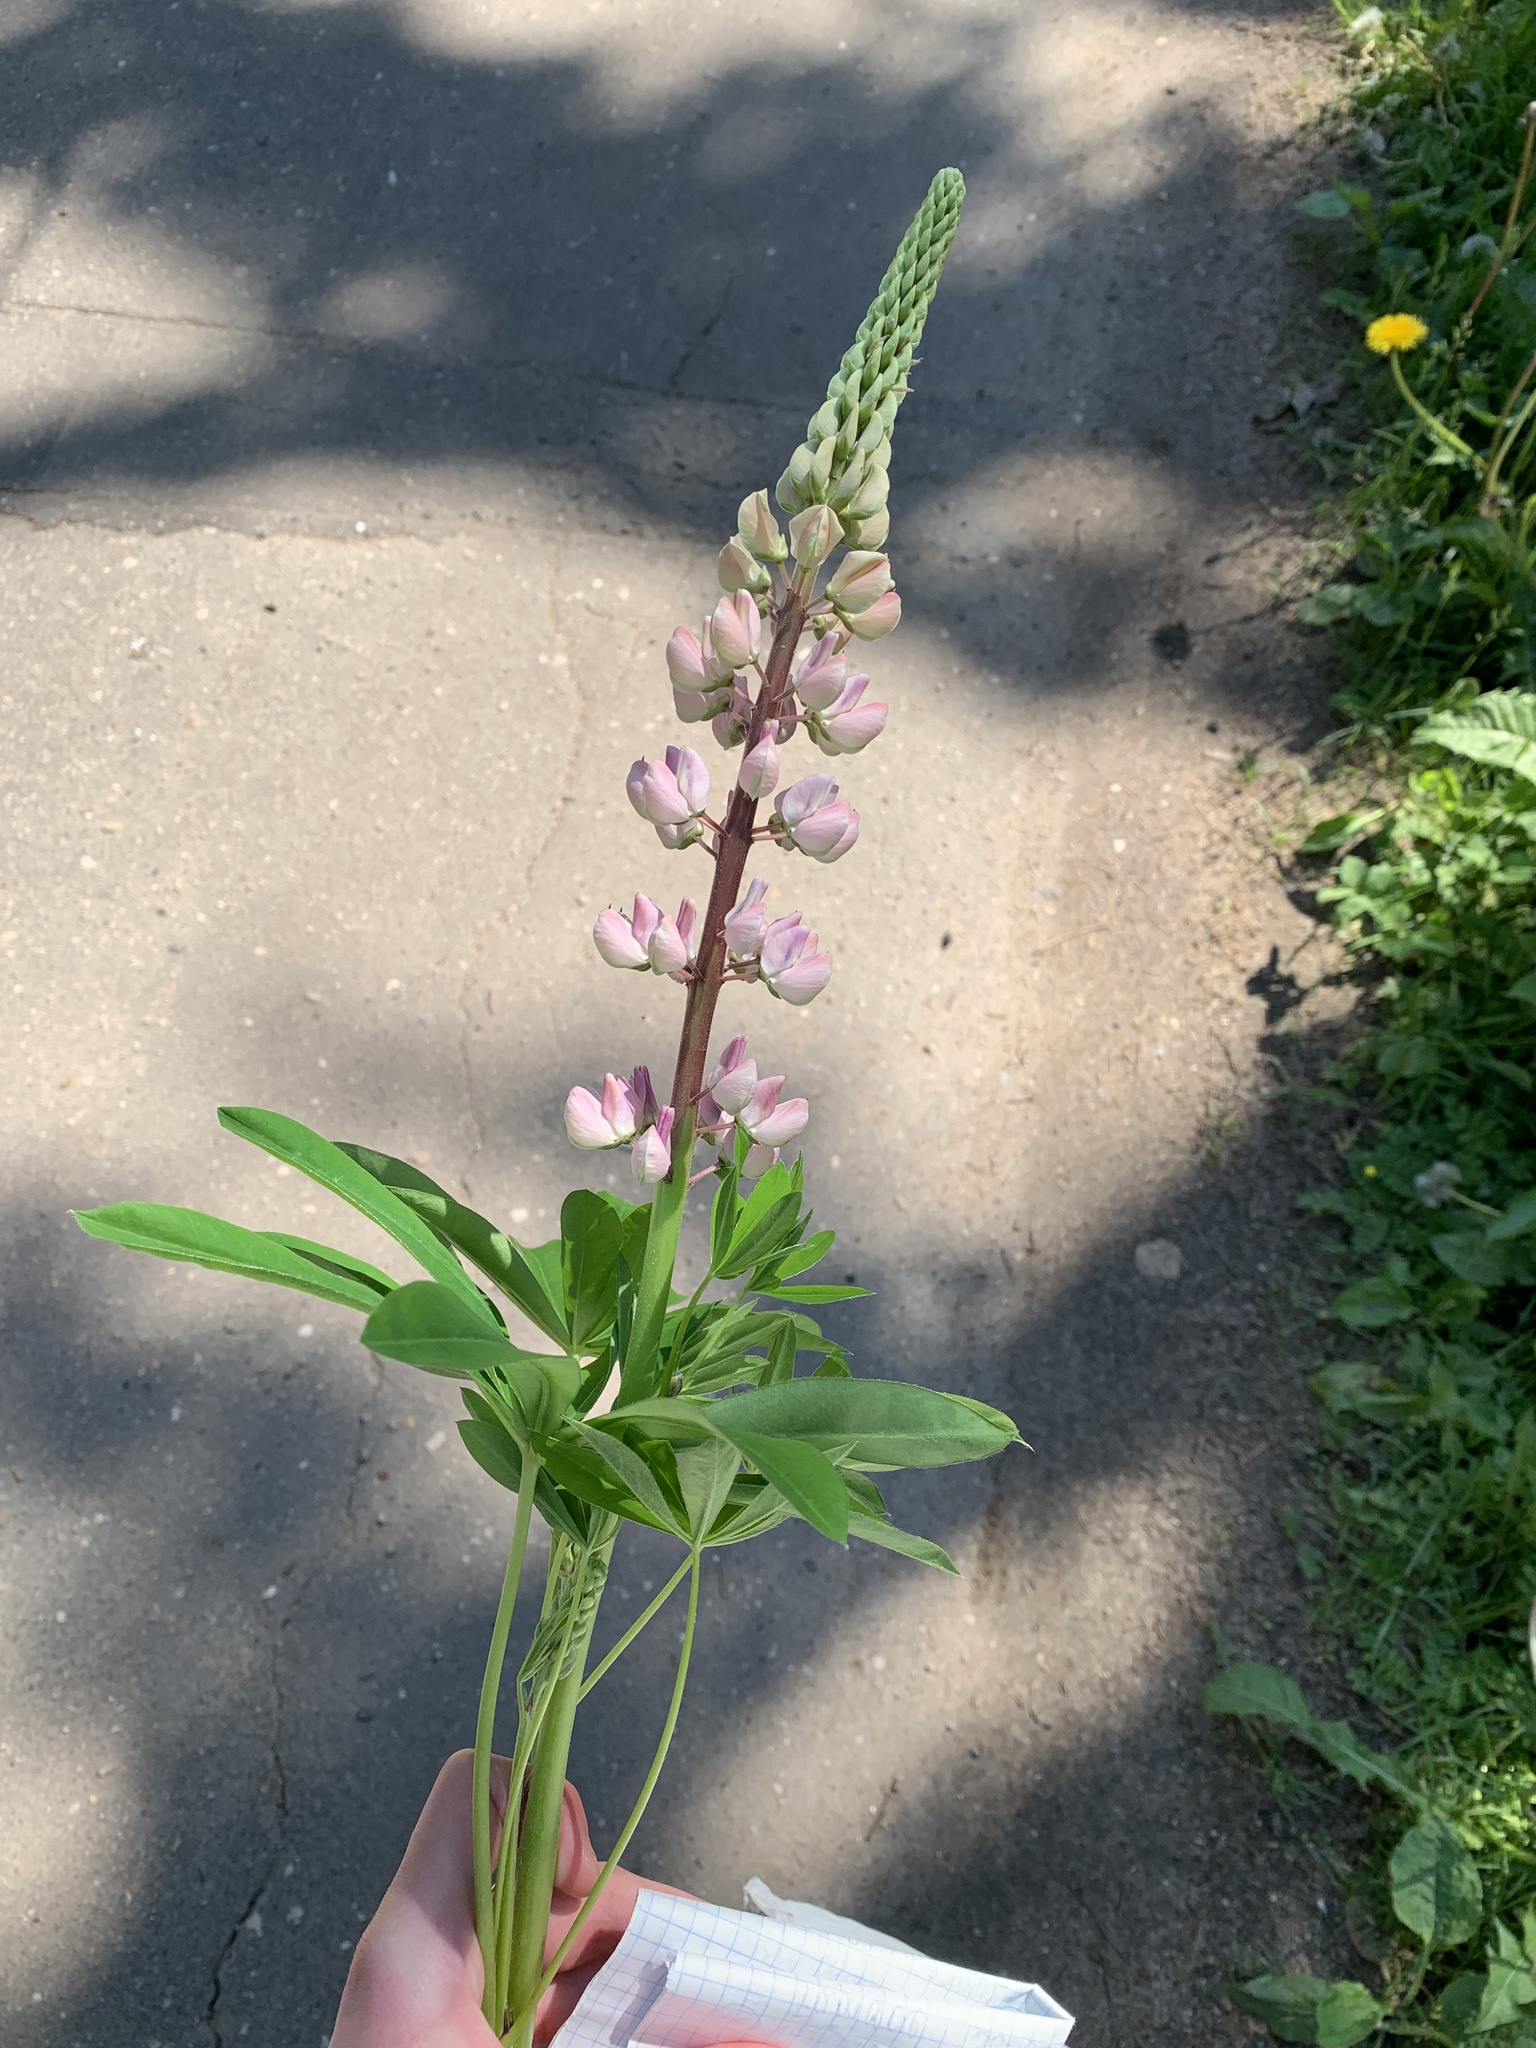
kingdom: Plantae
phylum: Tracheophyta
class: Magnoliopsida
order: Fabales
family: Fabaceae
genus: Lupinus
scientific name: Lupinus polyphyllus
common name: Garden lupin
